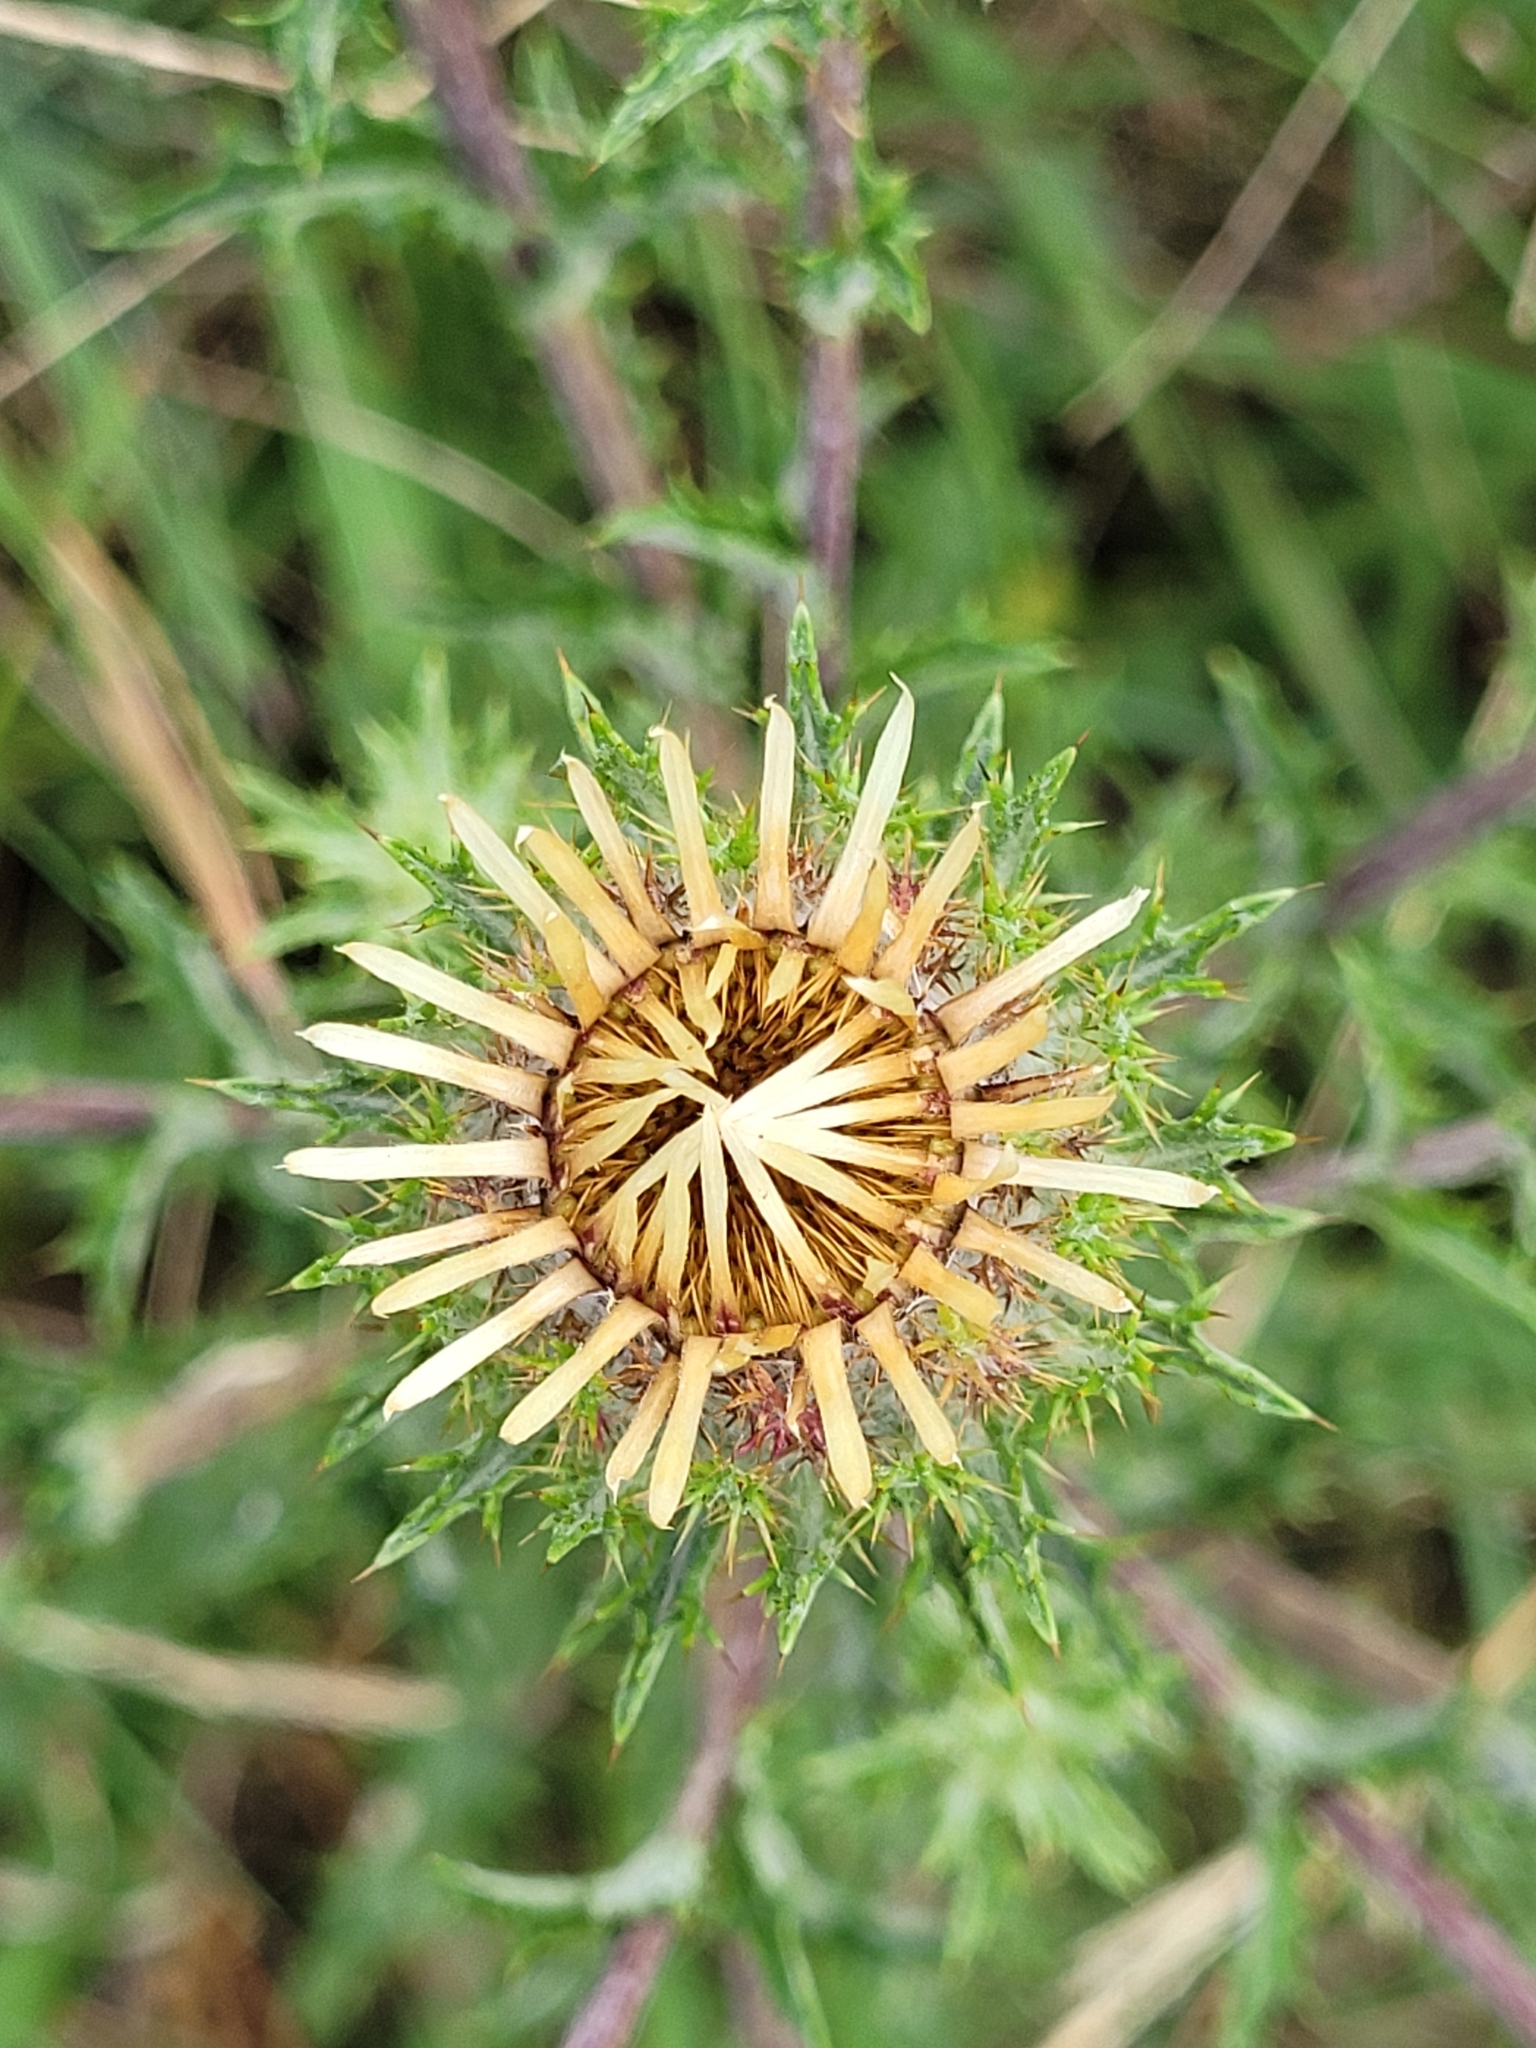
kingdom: Plantae
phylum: Tracheophyta
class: Magnoliopsida
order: Asterales
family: Asteraceae
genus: Carlina
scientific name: Carlina vulgaris
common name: Carline thistle
